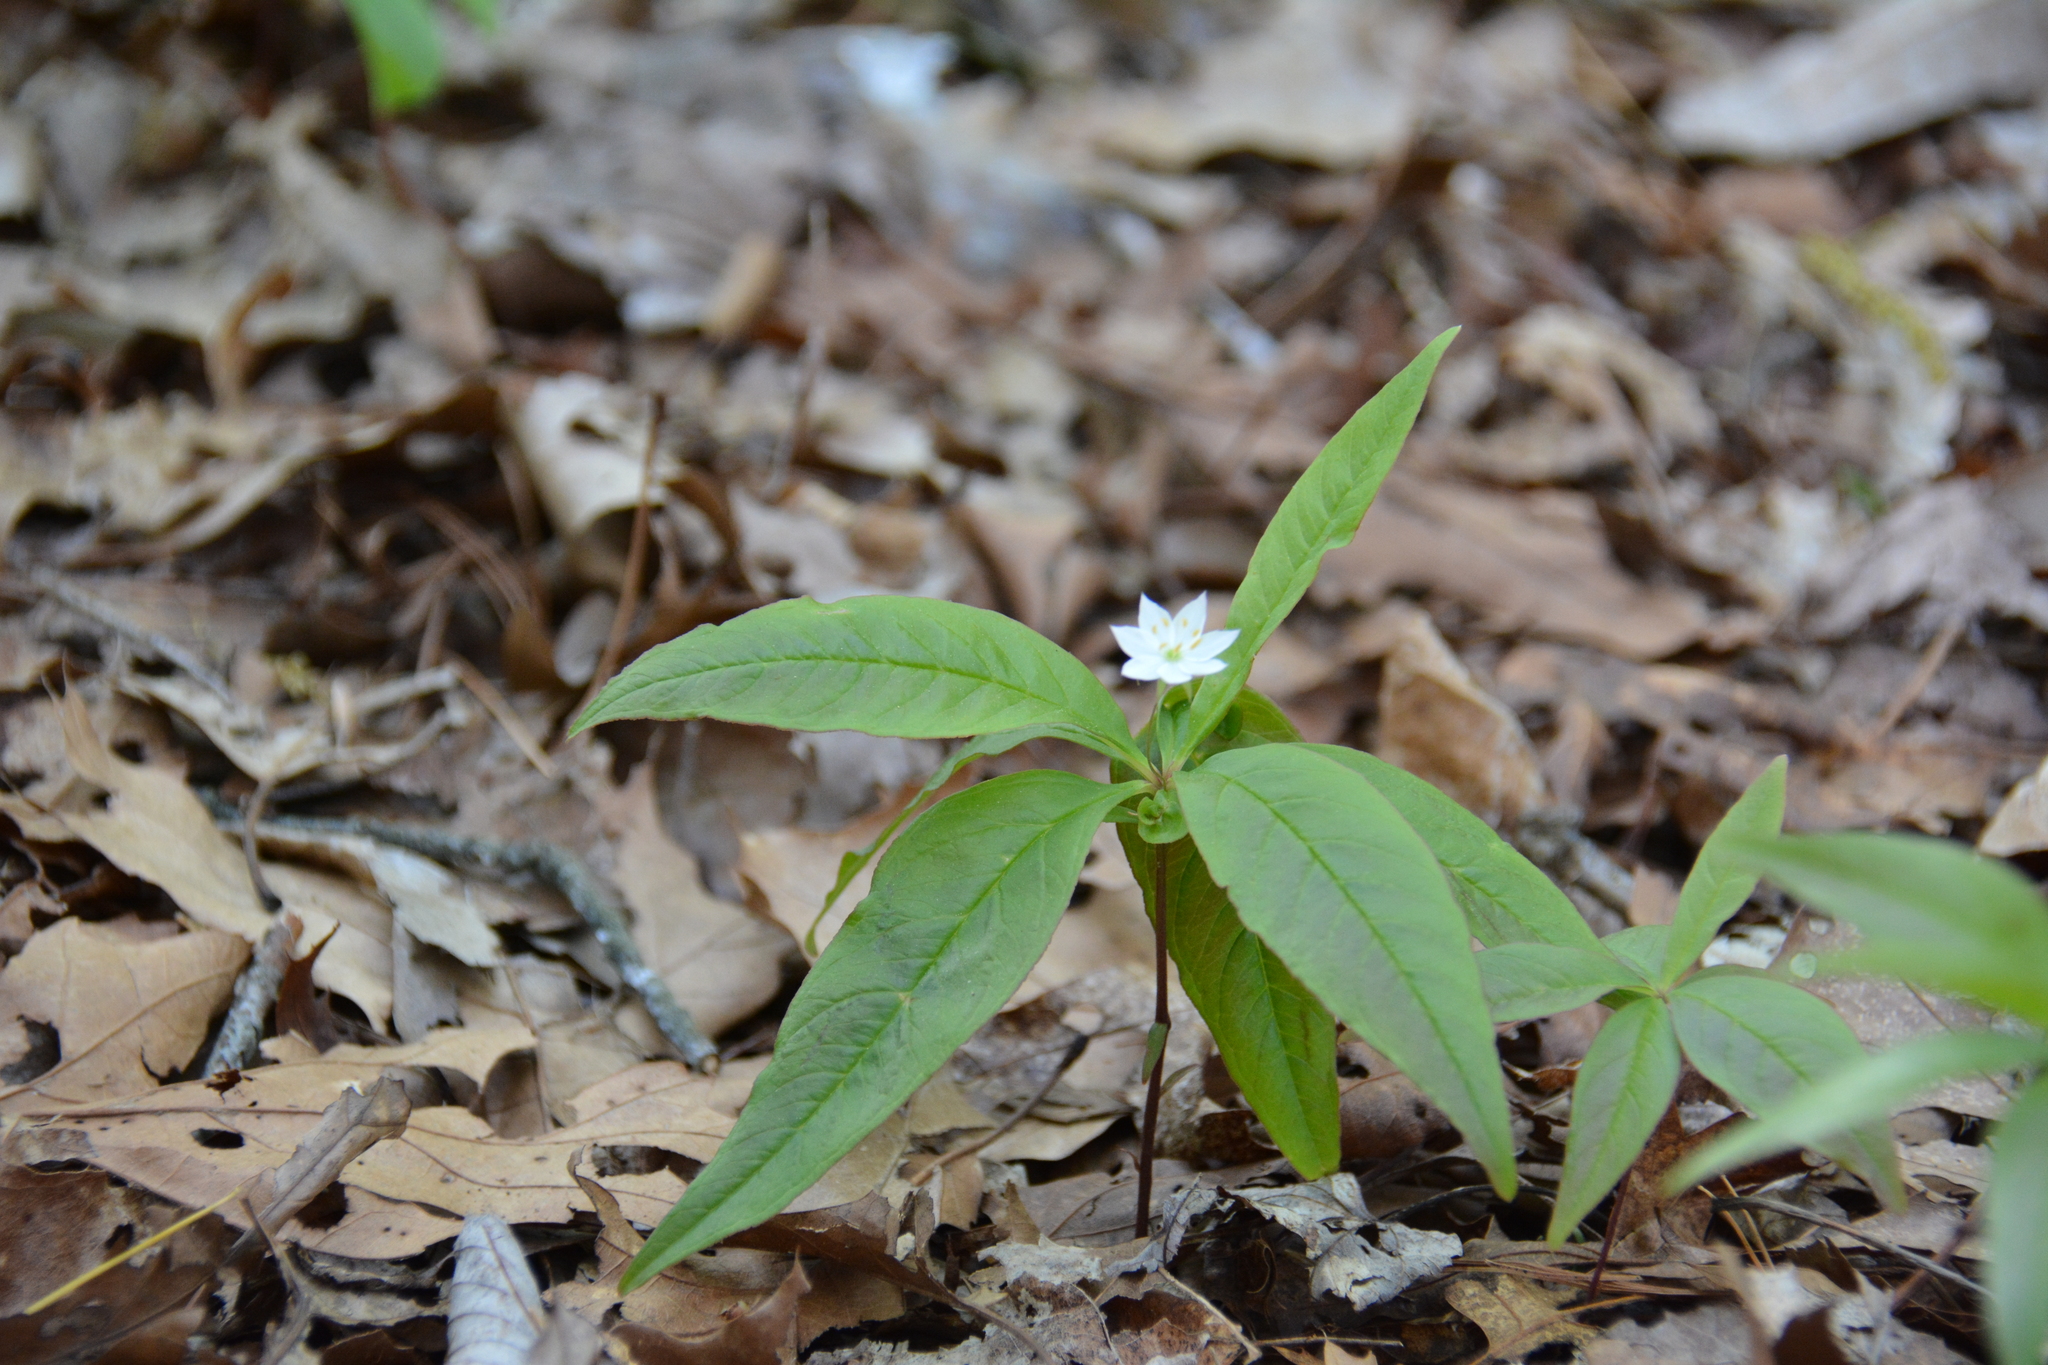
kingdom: Plantae
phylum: Tracheophyta
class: Magnoliopsida
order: Ericales
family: Primulaceae
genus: Lysimachia
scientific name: Lysimachia borealis
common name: American starflower
